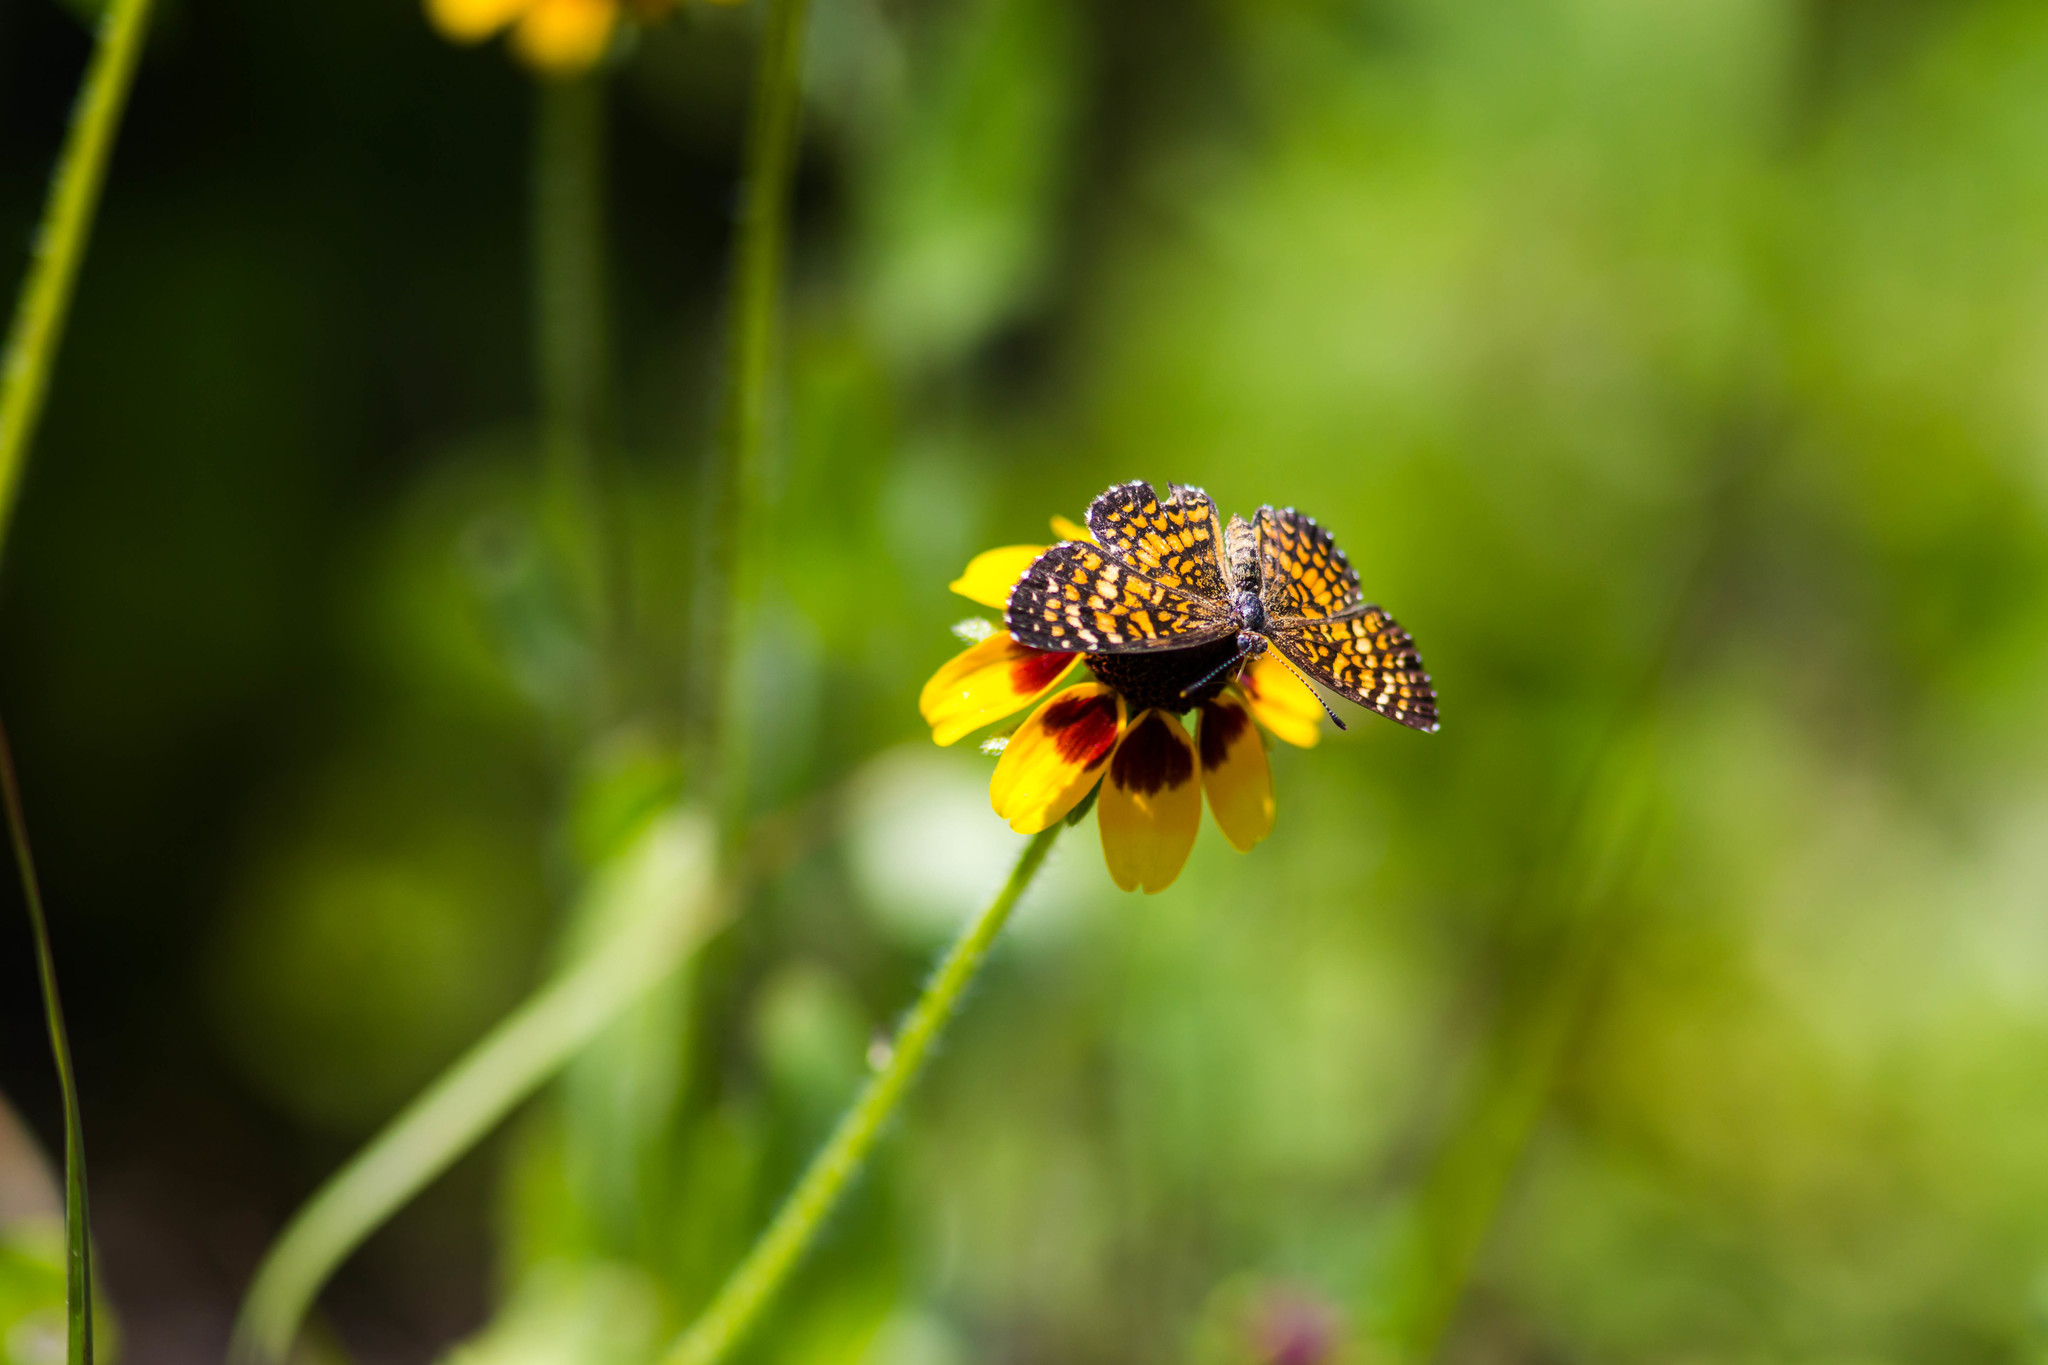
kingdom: Animalia
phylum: Arthropoda
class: Insecta
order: Lepidoptera
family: Nymphalidae
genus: Texola
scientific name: Texola elada
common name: Elada checkerspot
